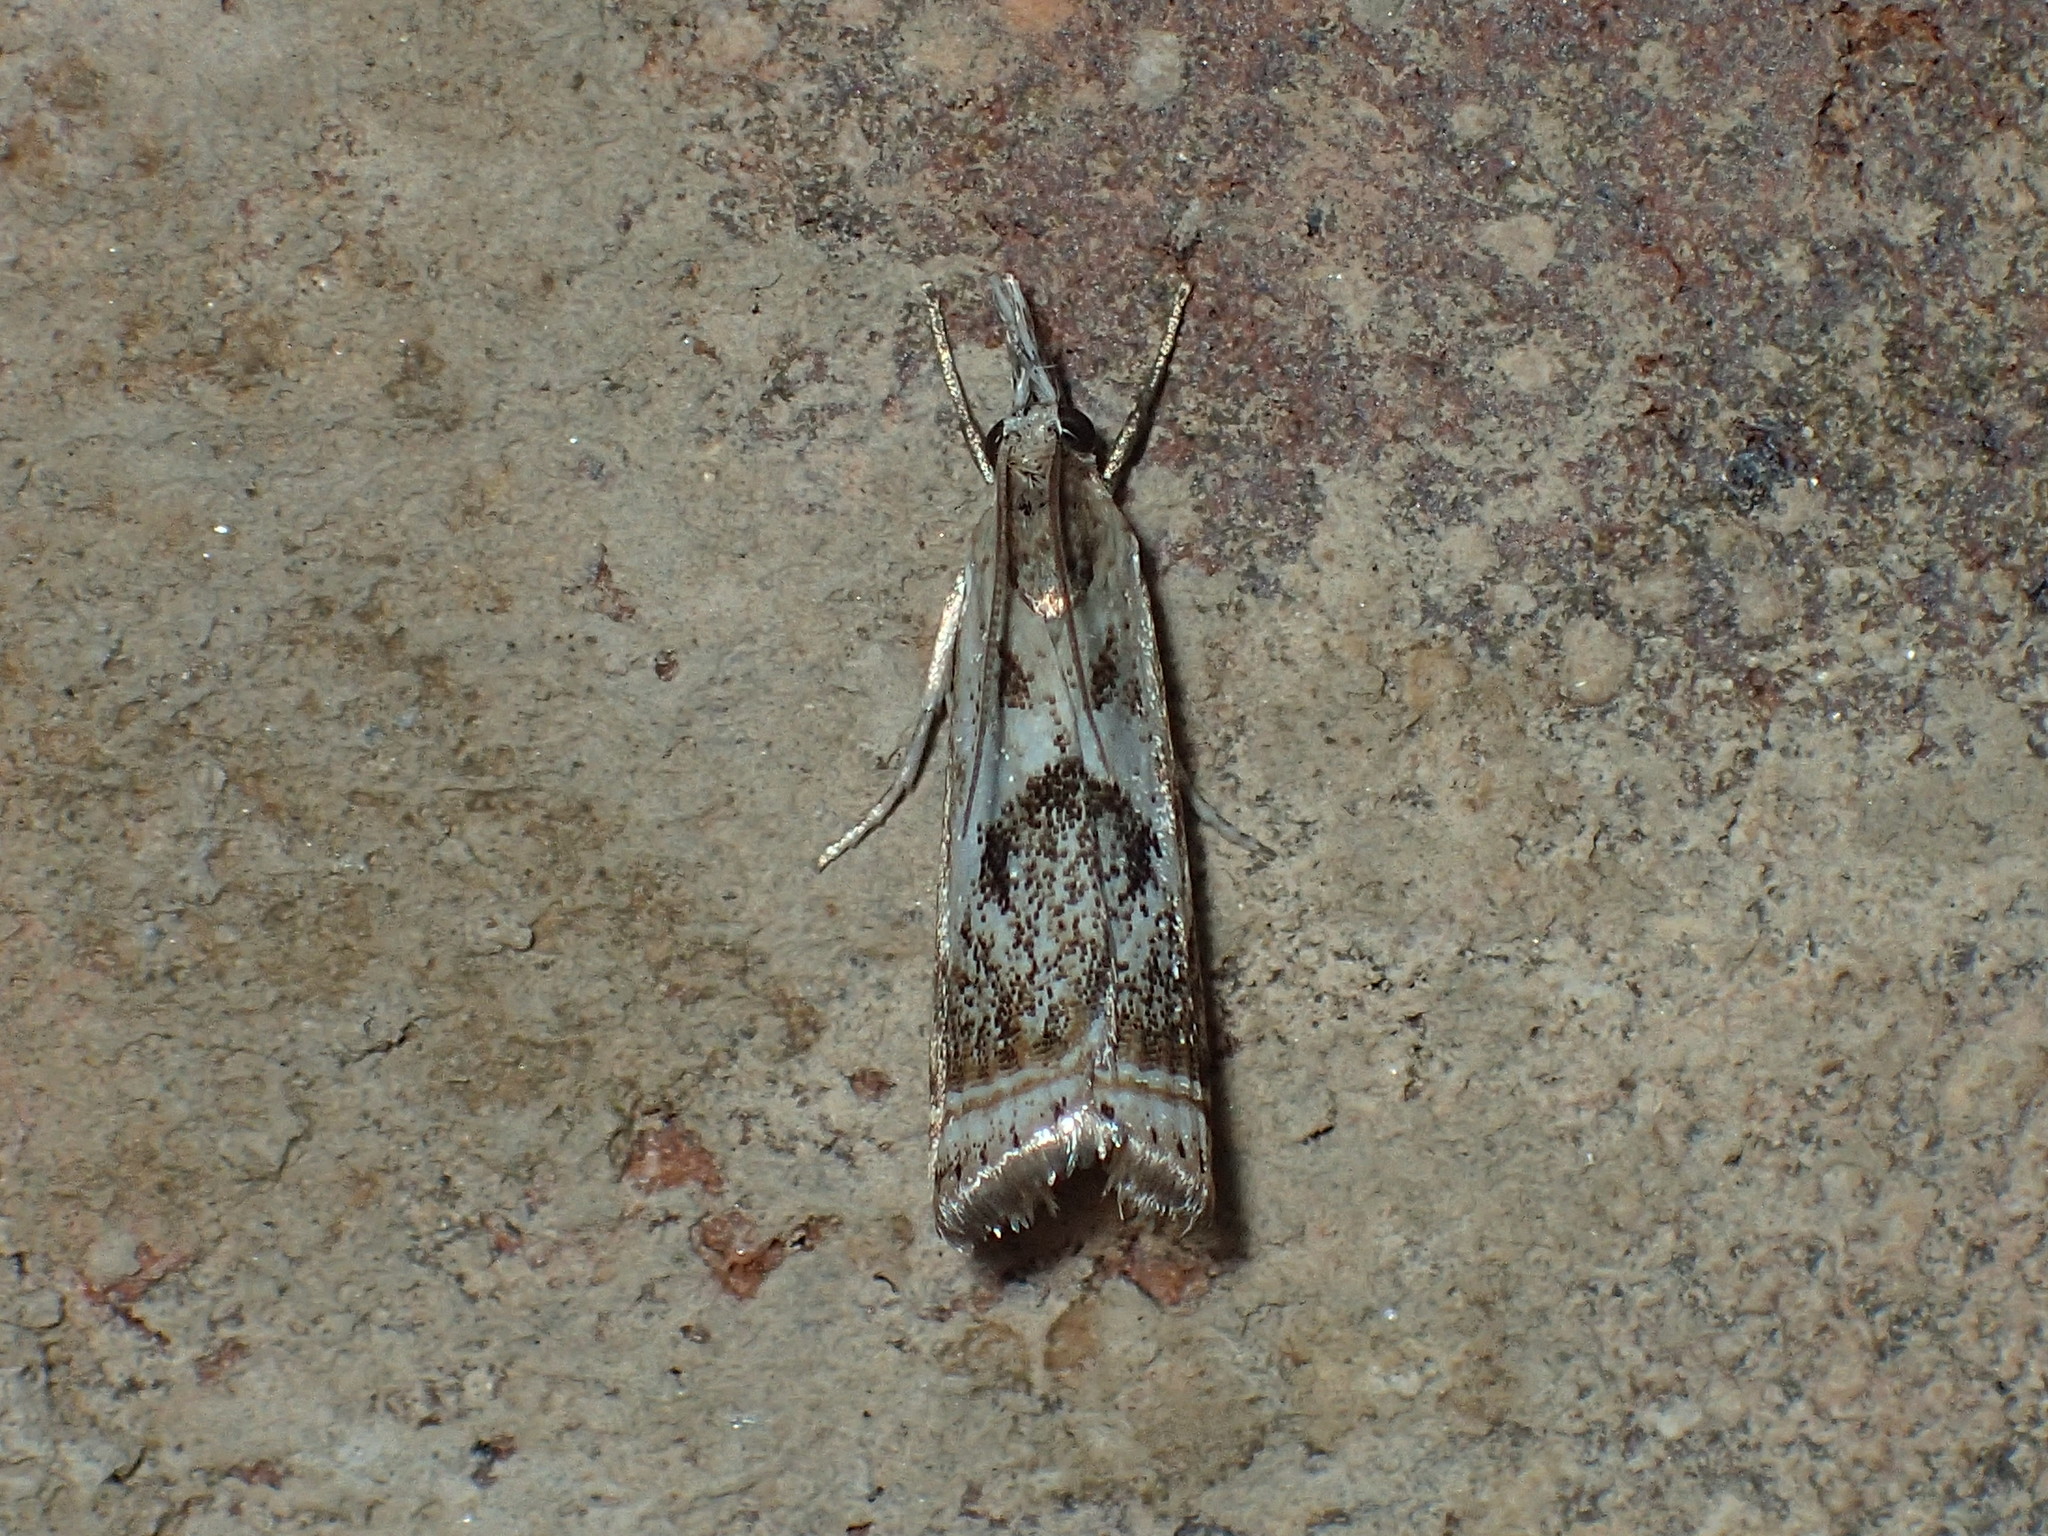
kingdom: Animalia
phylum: Arthropoda
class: Insecta
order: Lepidoptera
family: Crambidae
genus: Microcrambus
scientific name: Microcrambus elegans
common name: Elegant grass-veneer
